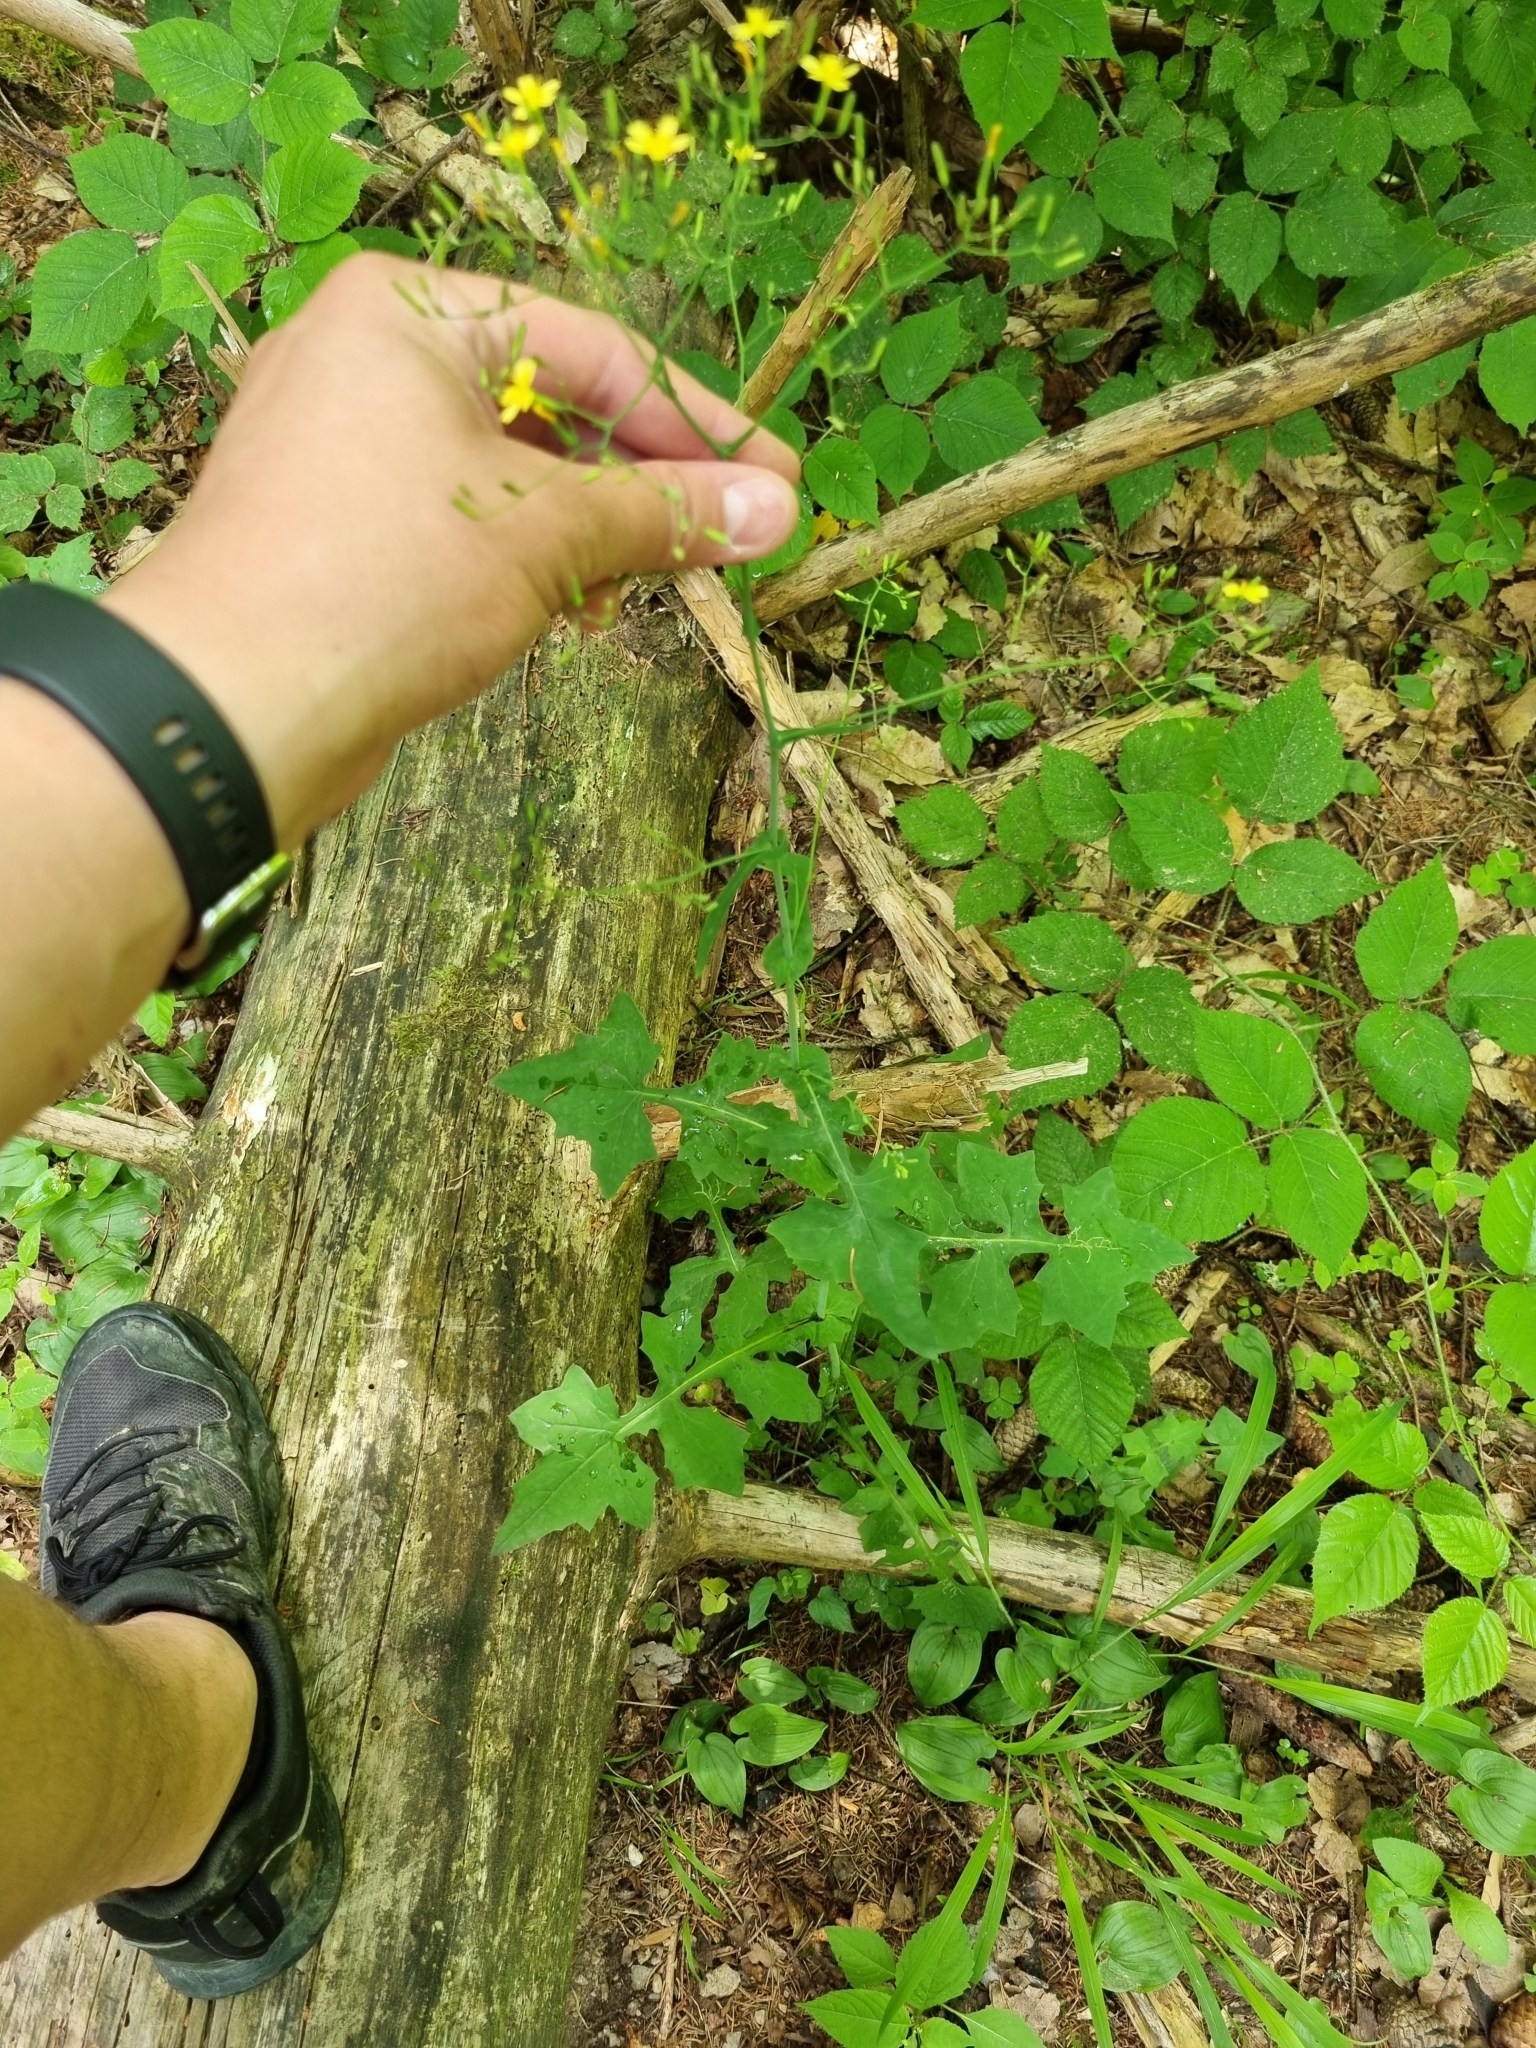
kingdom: Plantae
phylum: Tracheophyta
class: Magnoliopsida
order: Asterales
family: Asteraceae
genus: Mycelis
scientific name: Mycelis muralis
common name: Wall lettuce
